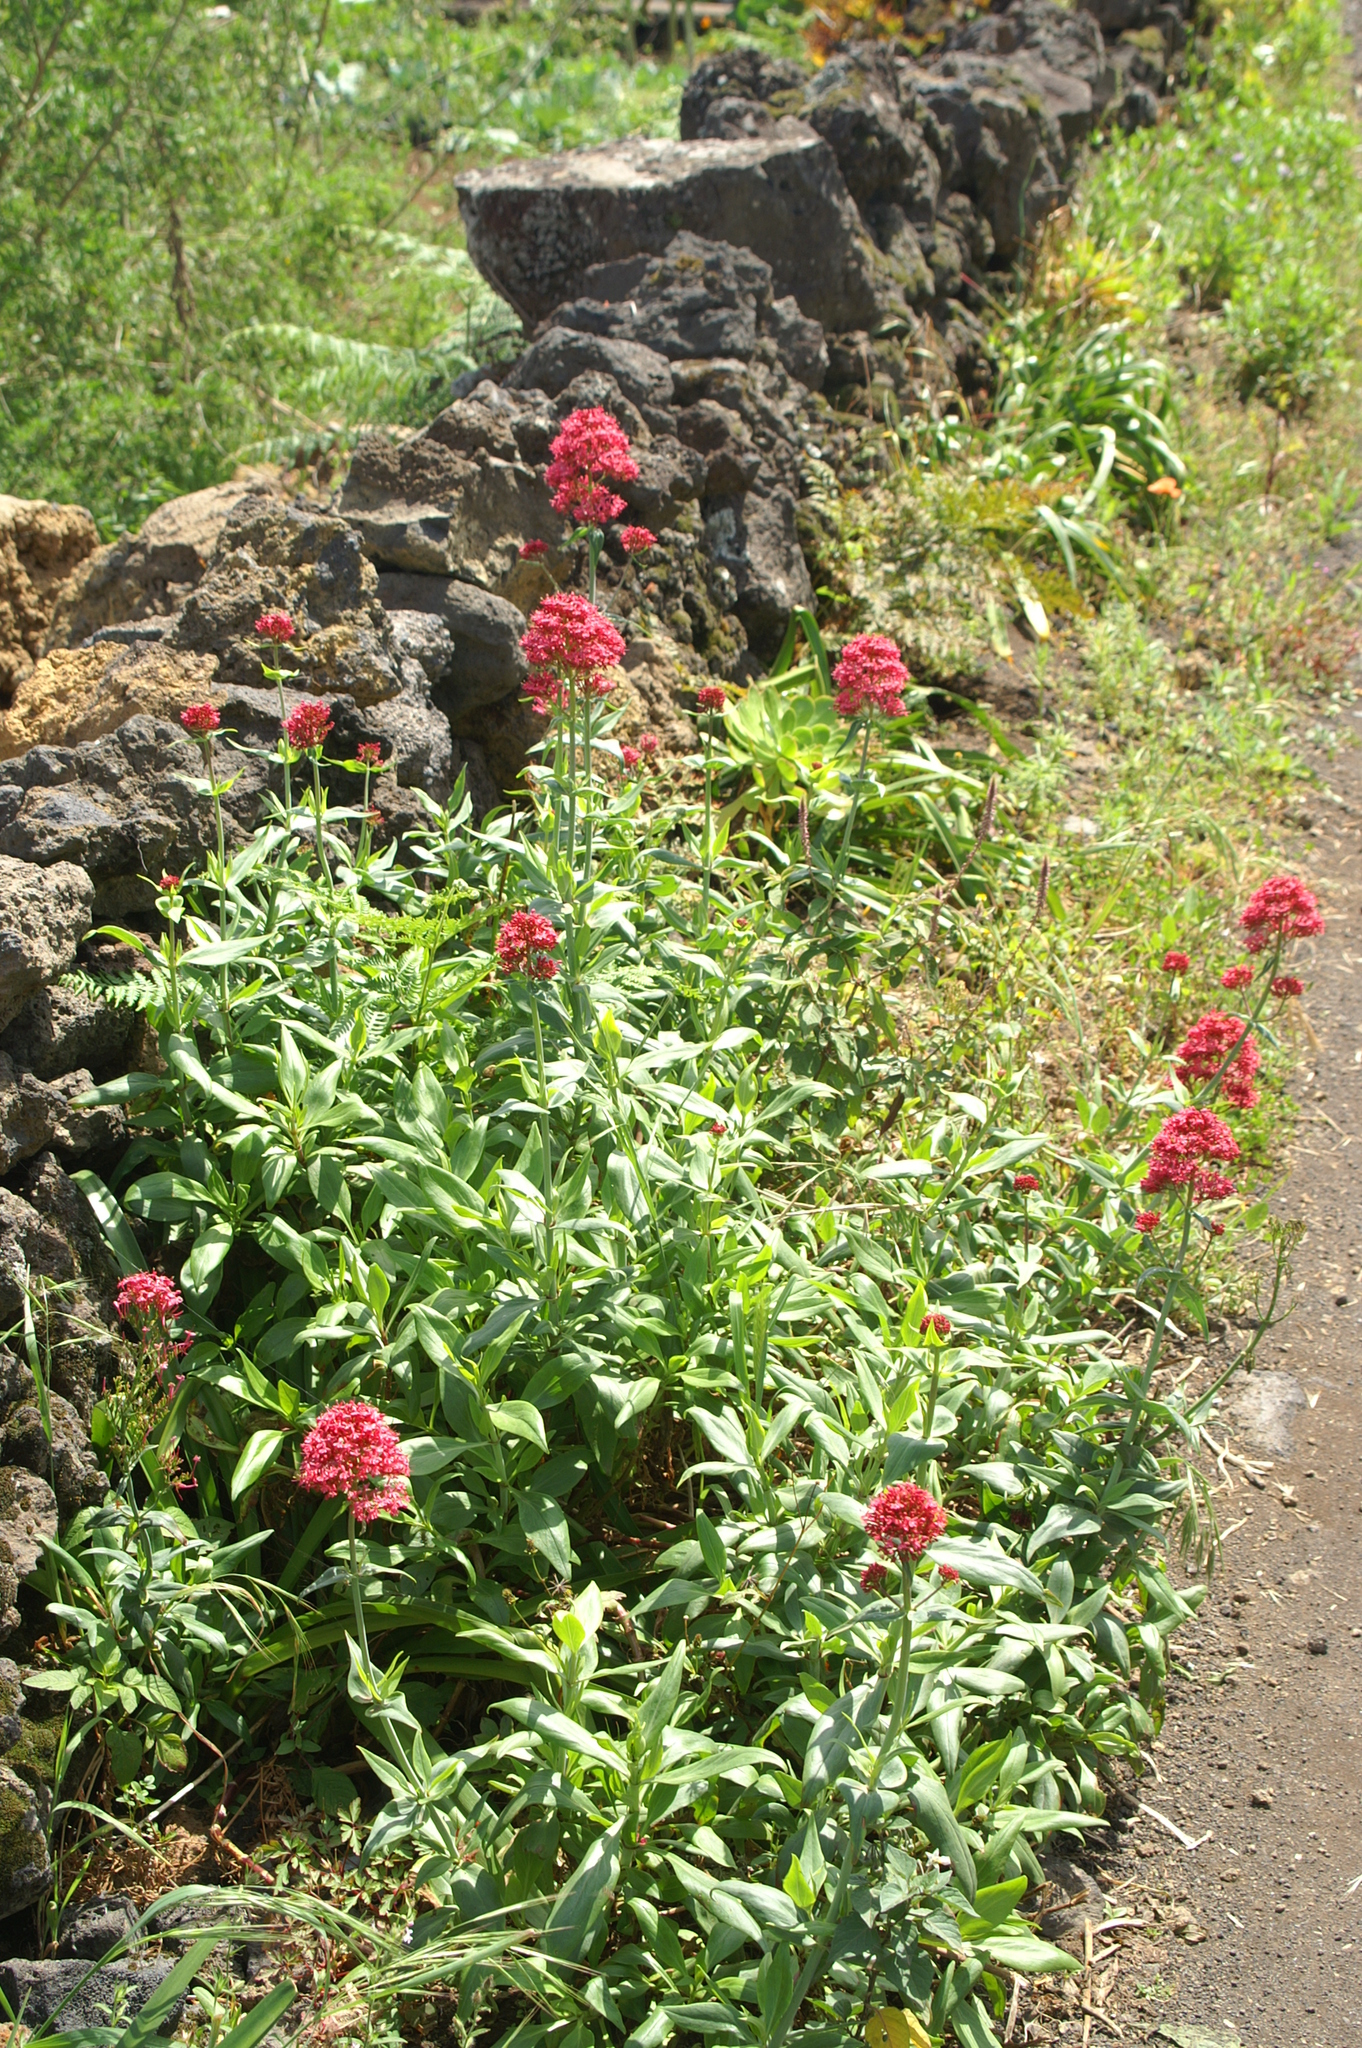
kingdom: Plantae
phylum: Tracheophyta
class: Magnoliopsida
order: Dipsacales
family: Caprifoliaceae
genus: Centranthus
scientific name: Centranthus ruber
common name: Red valerian
